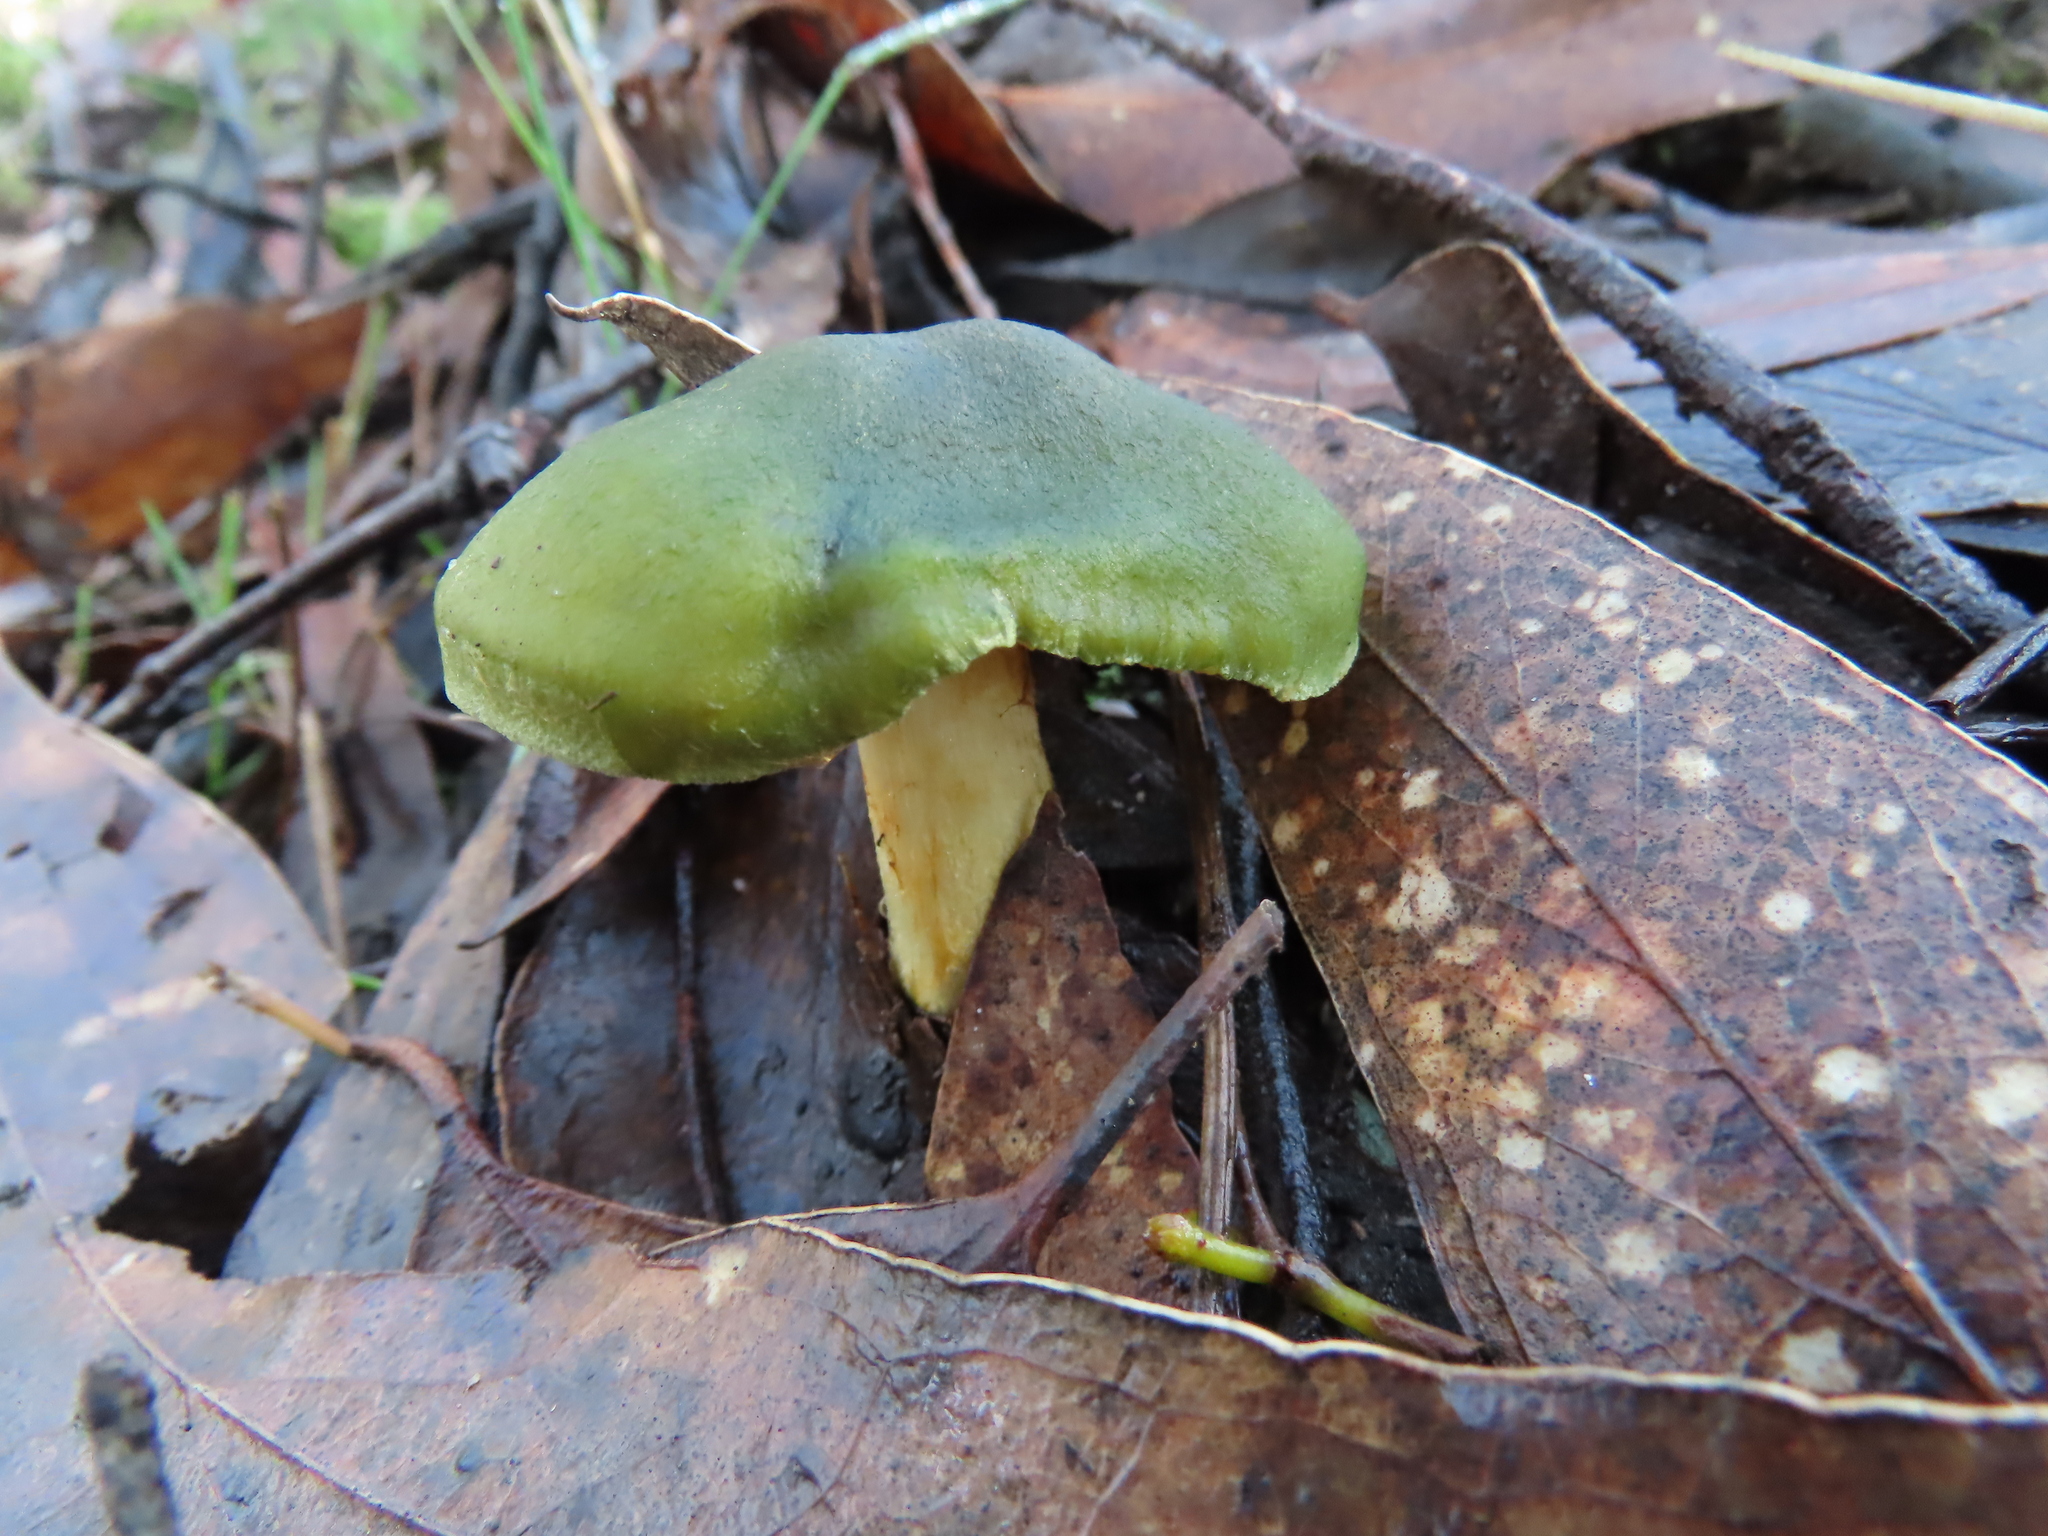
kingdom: Fungi
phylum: Basidiomycota
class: Agaricomycetes
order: Agaricales
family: Cortinariaceae
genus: Cortinarius
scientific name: Cortinarius austrovenetus
